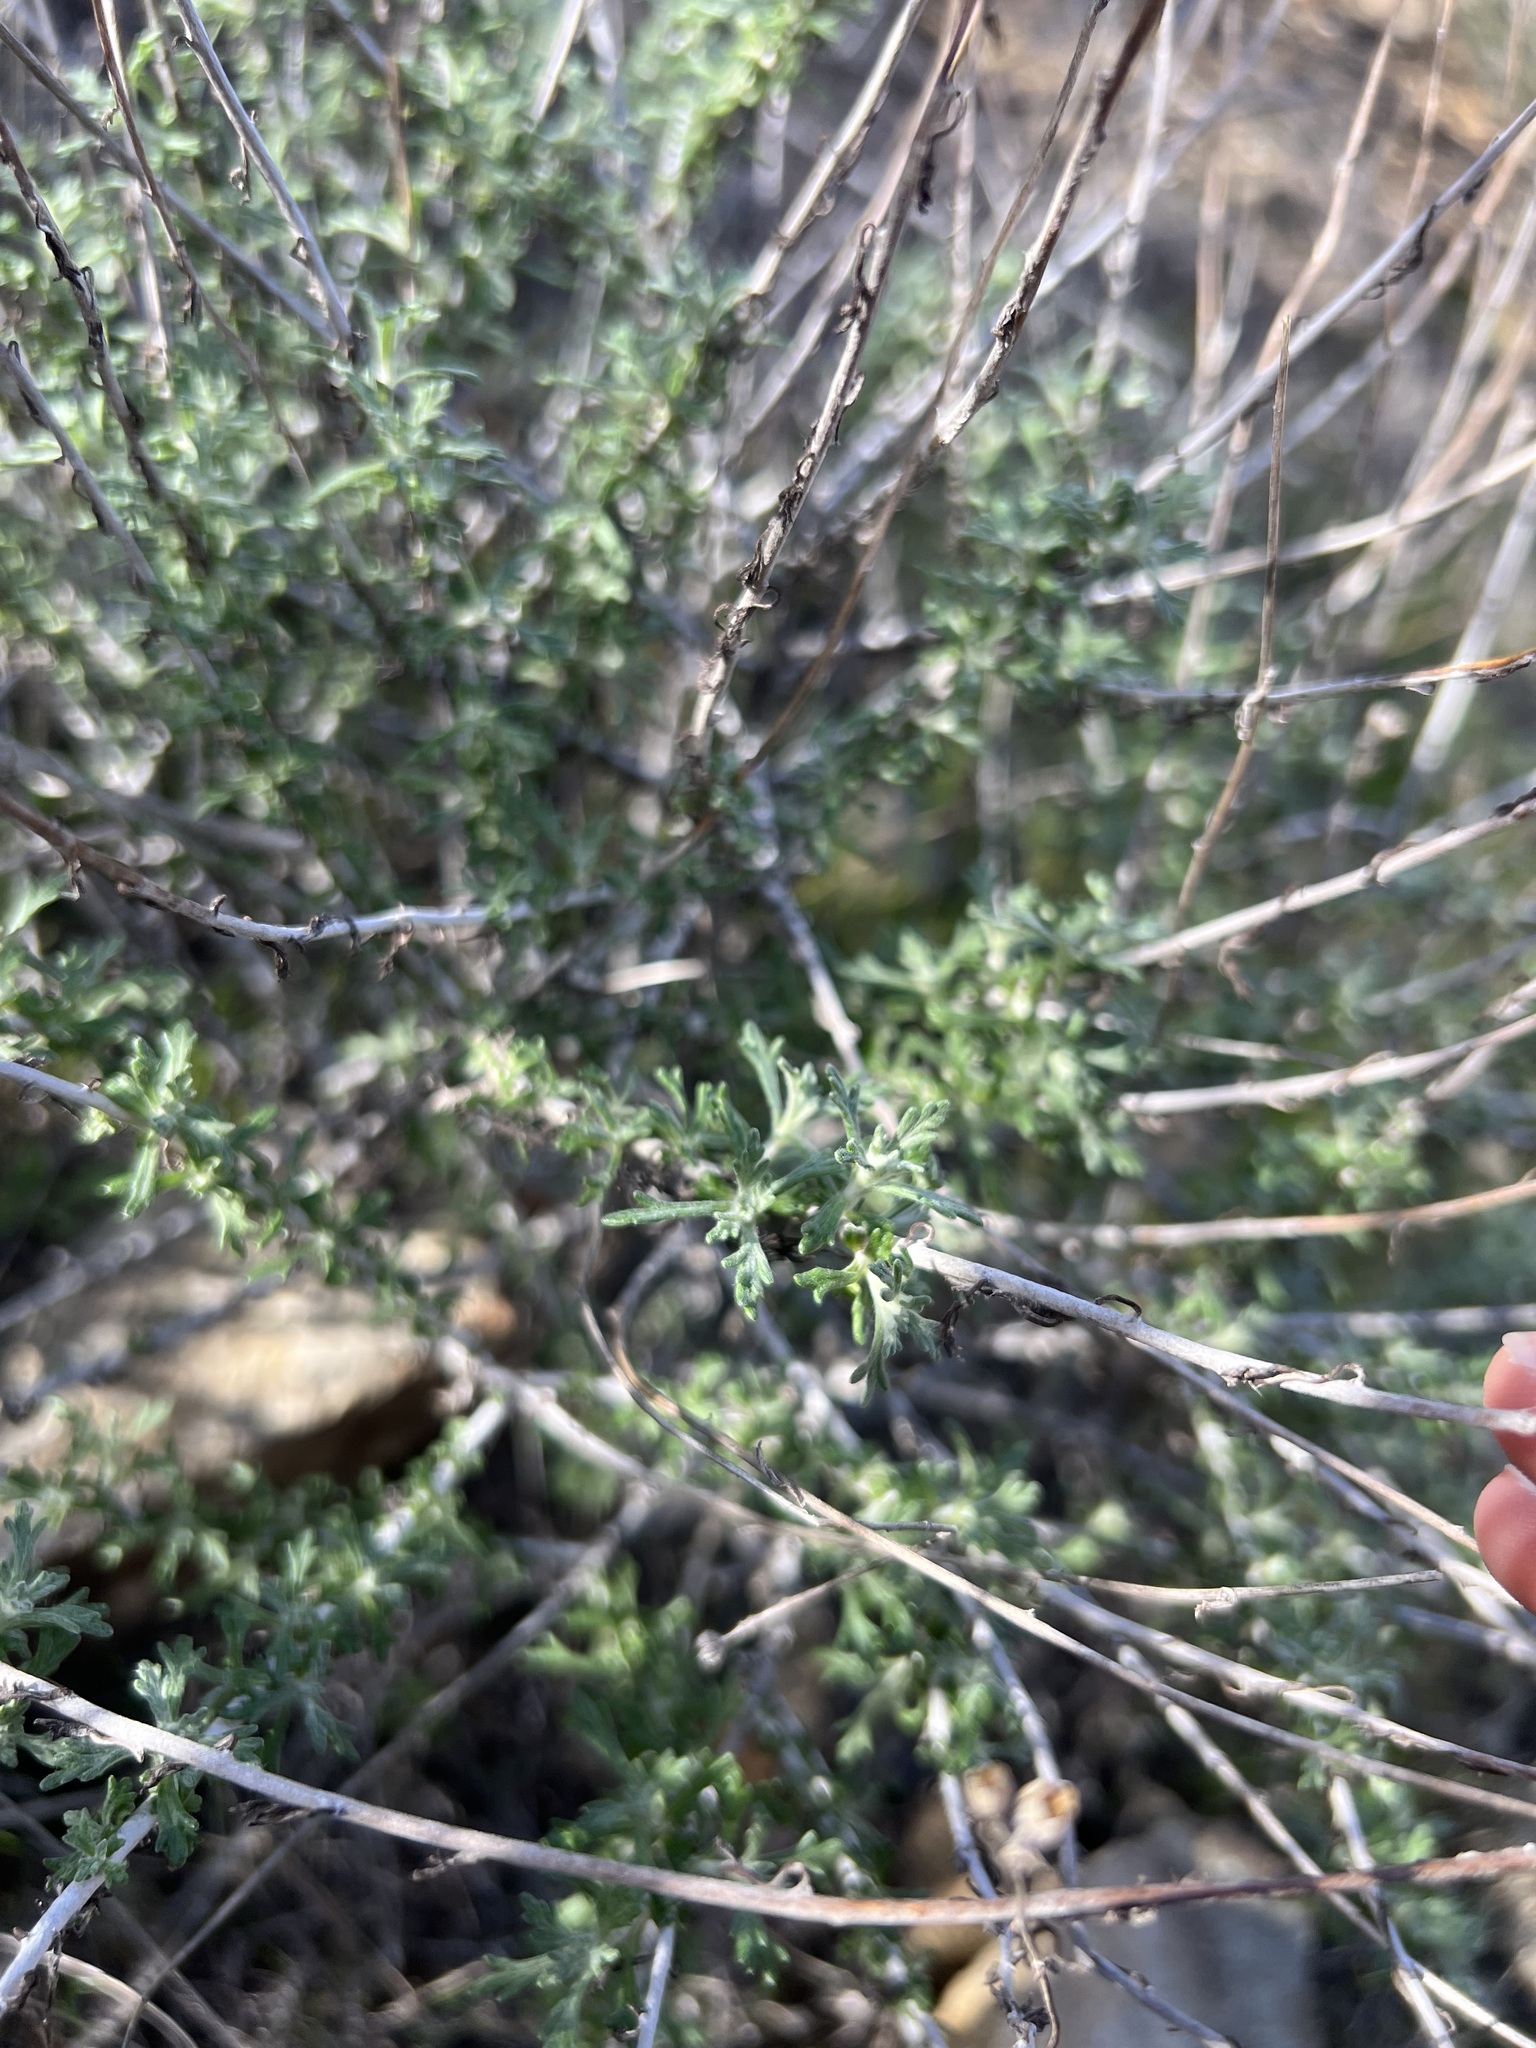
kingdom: Plantae
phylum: Tracheophyta
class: Magnoliopsida
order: Asterales
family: Asteraceae
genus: Eriophyllum
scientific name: Eriophyllum confertiflorum
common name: Golden-yarrow
